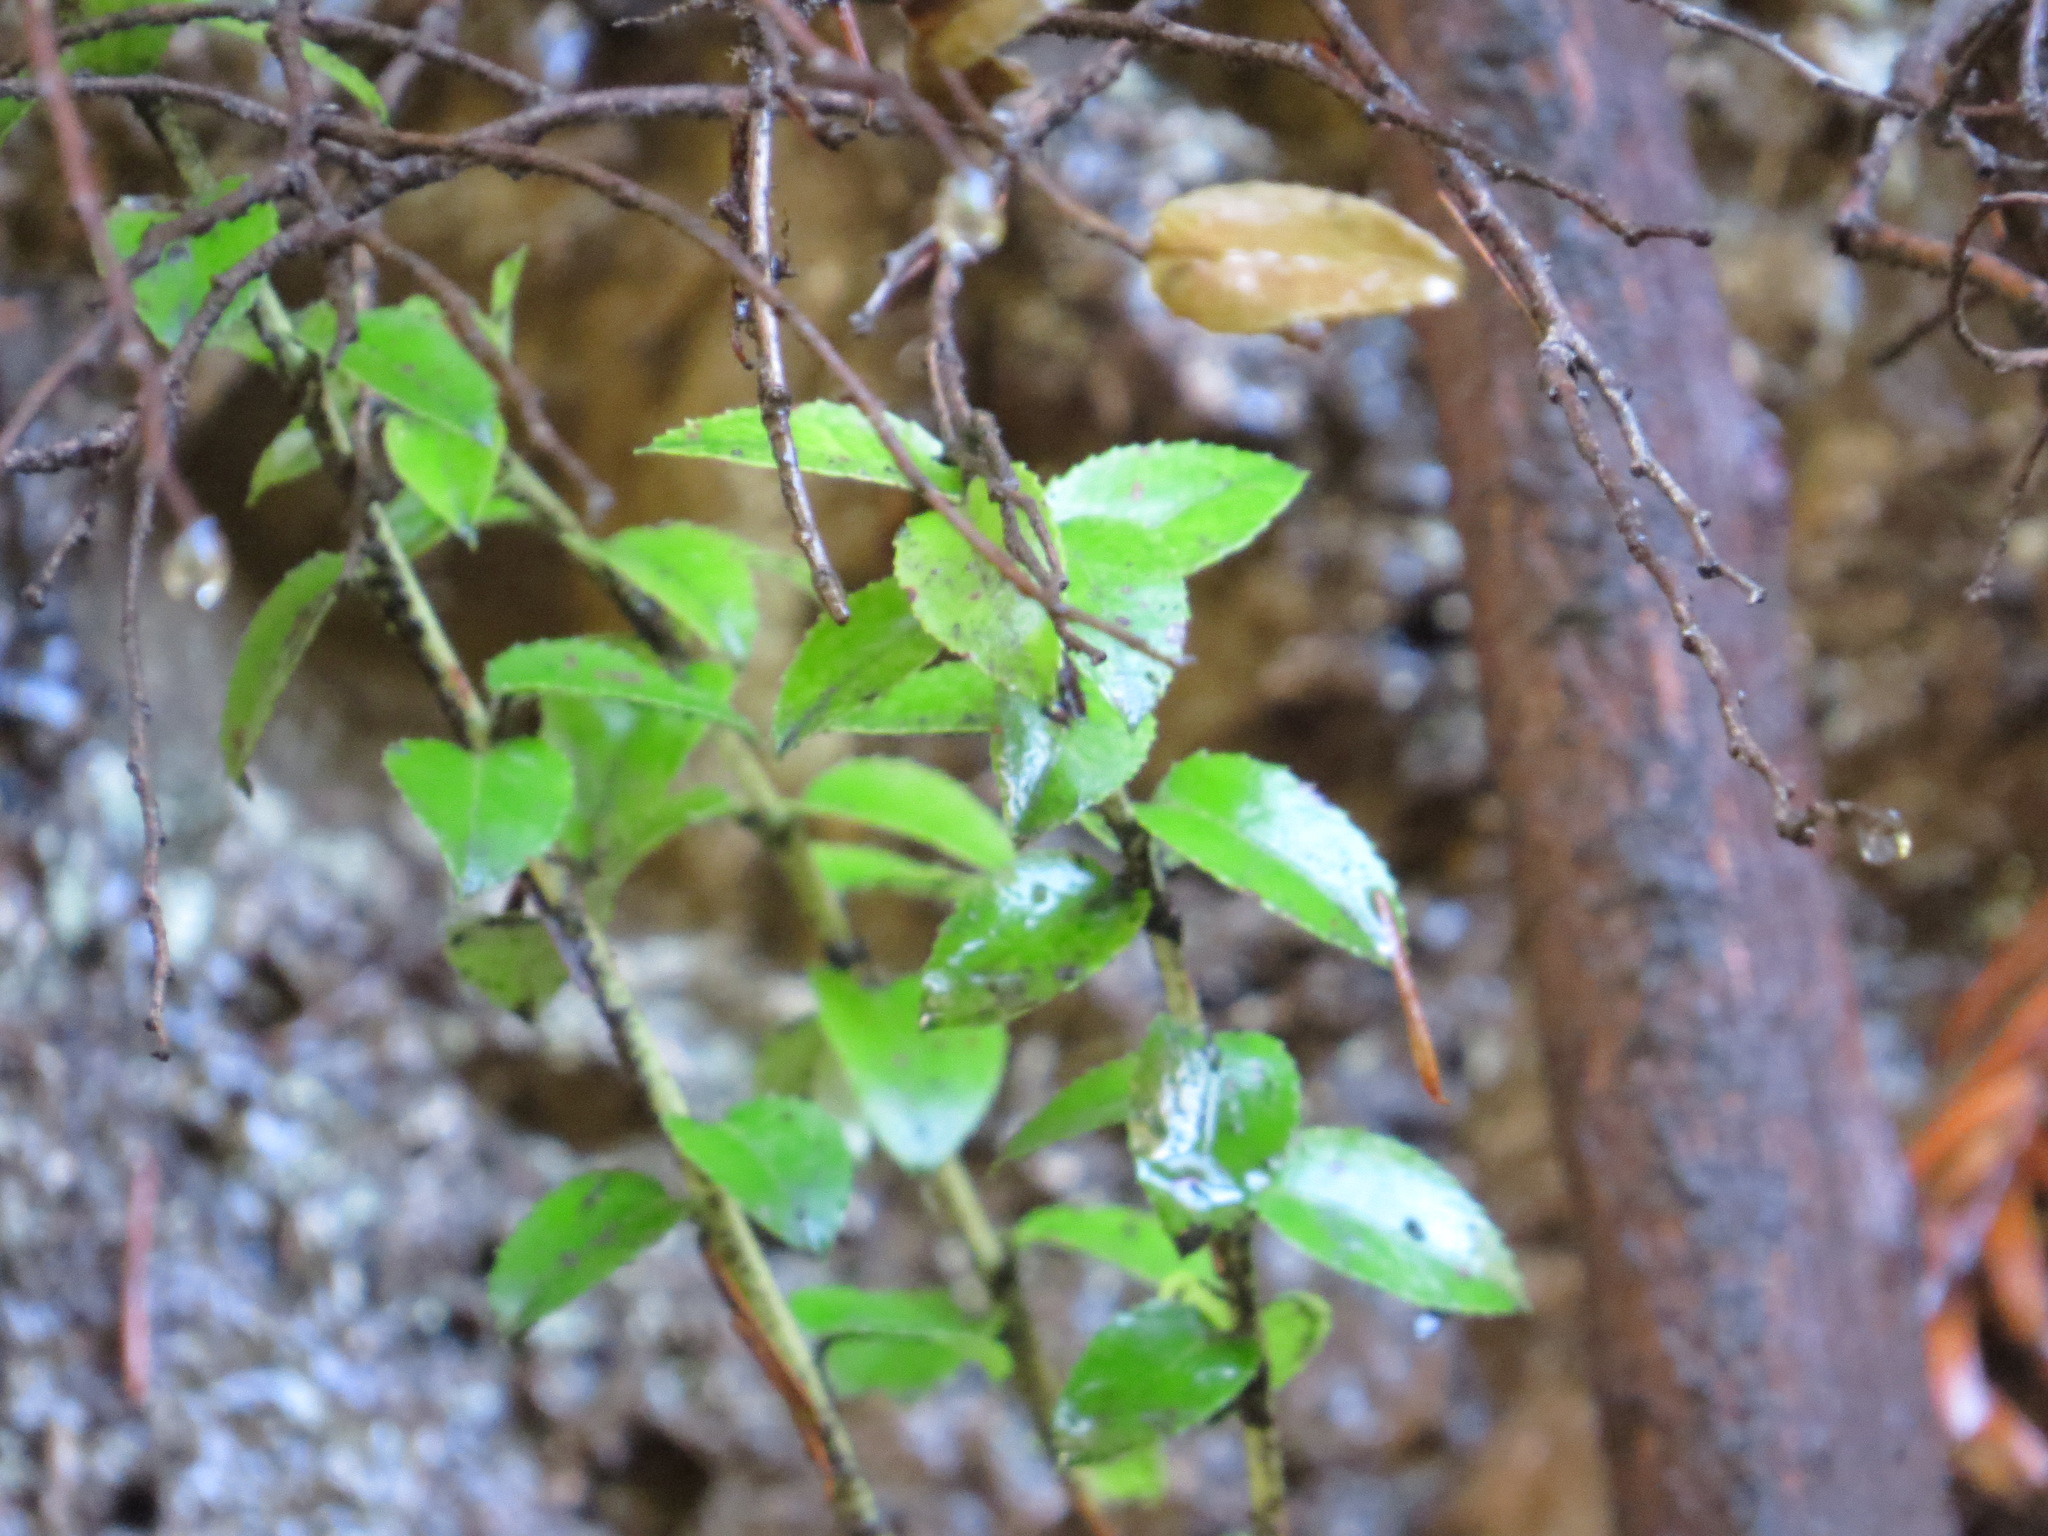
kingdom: Plantae
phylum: Tracheophyta
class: Magnoliopsida
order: Ericales
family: Ericaceae
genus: Vaccinium
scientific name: Vaccinium ovatum
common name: California-huckleberry
